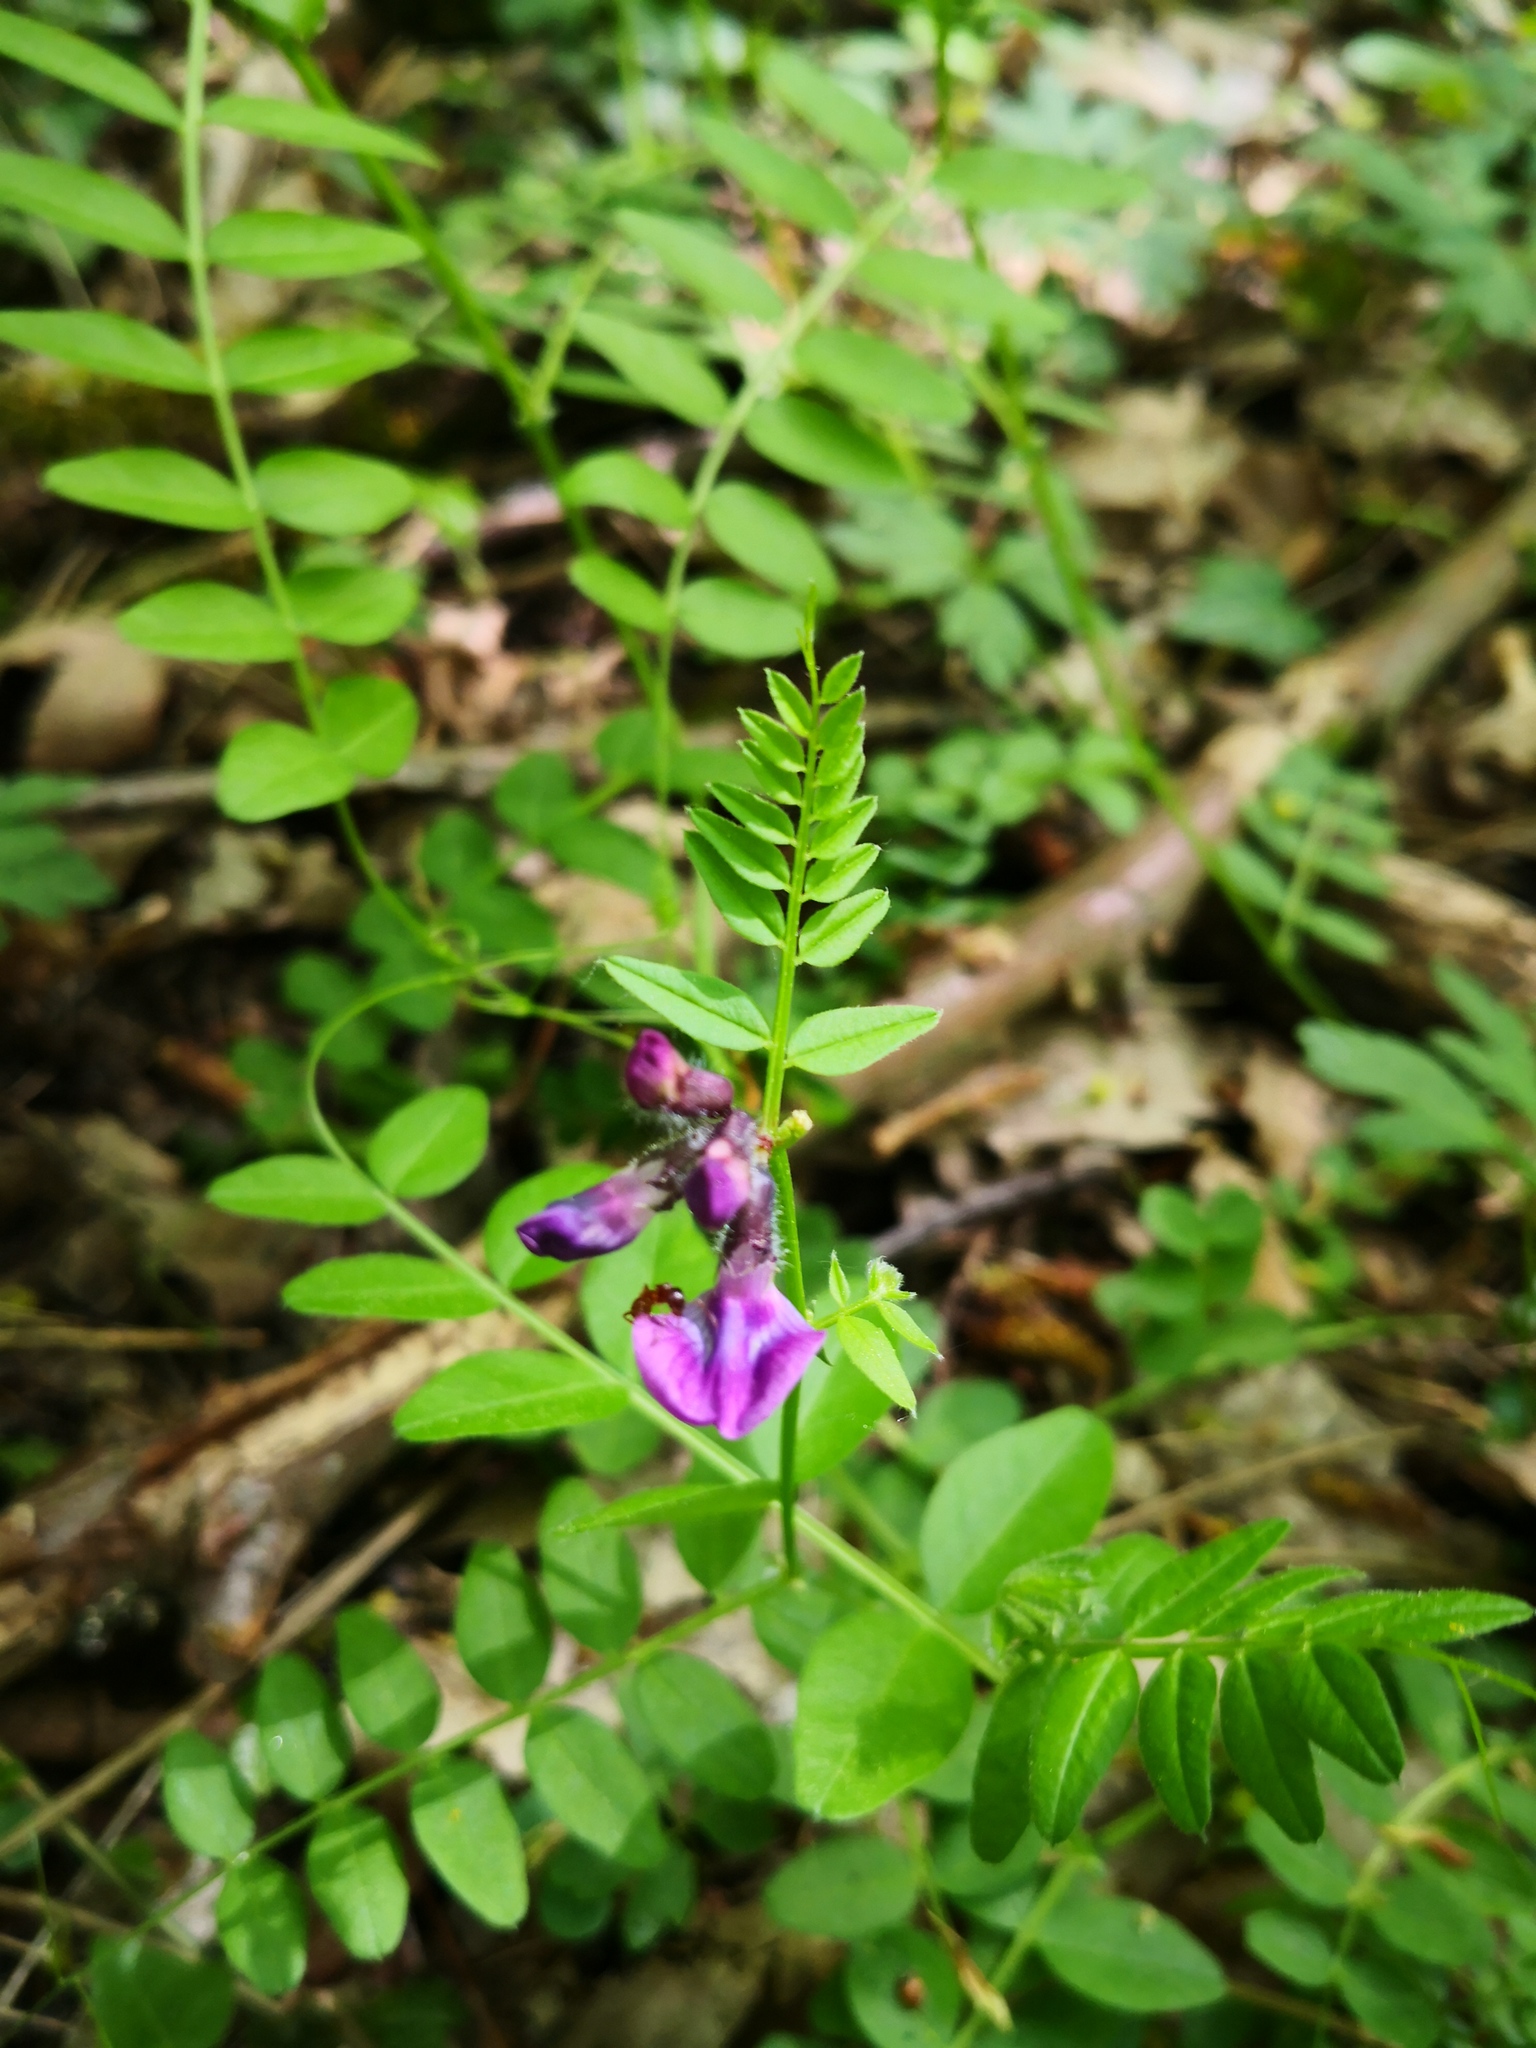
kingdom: Plantae
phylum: Tracheophyta
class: Magnoliopsida
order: Fabales
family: Fabaceae
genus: Vicia
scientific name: Vicia sepium
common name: Bush vetch
